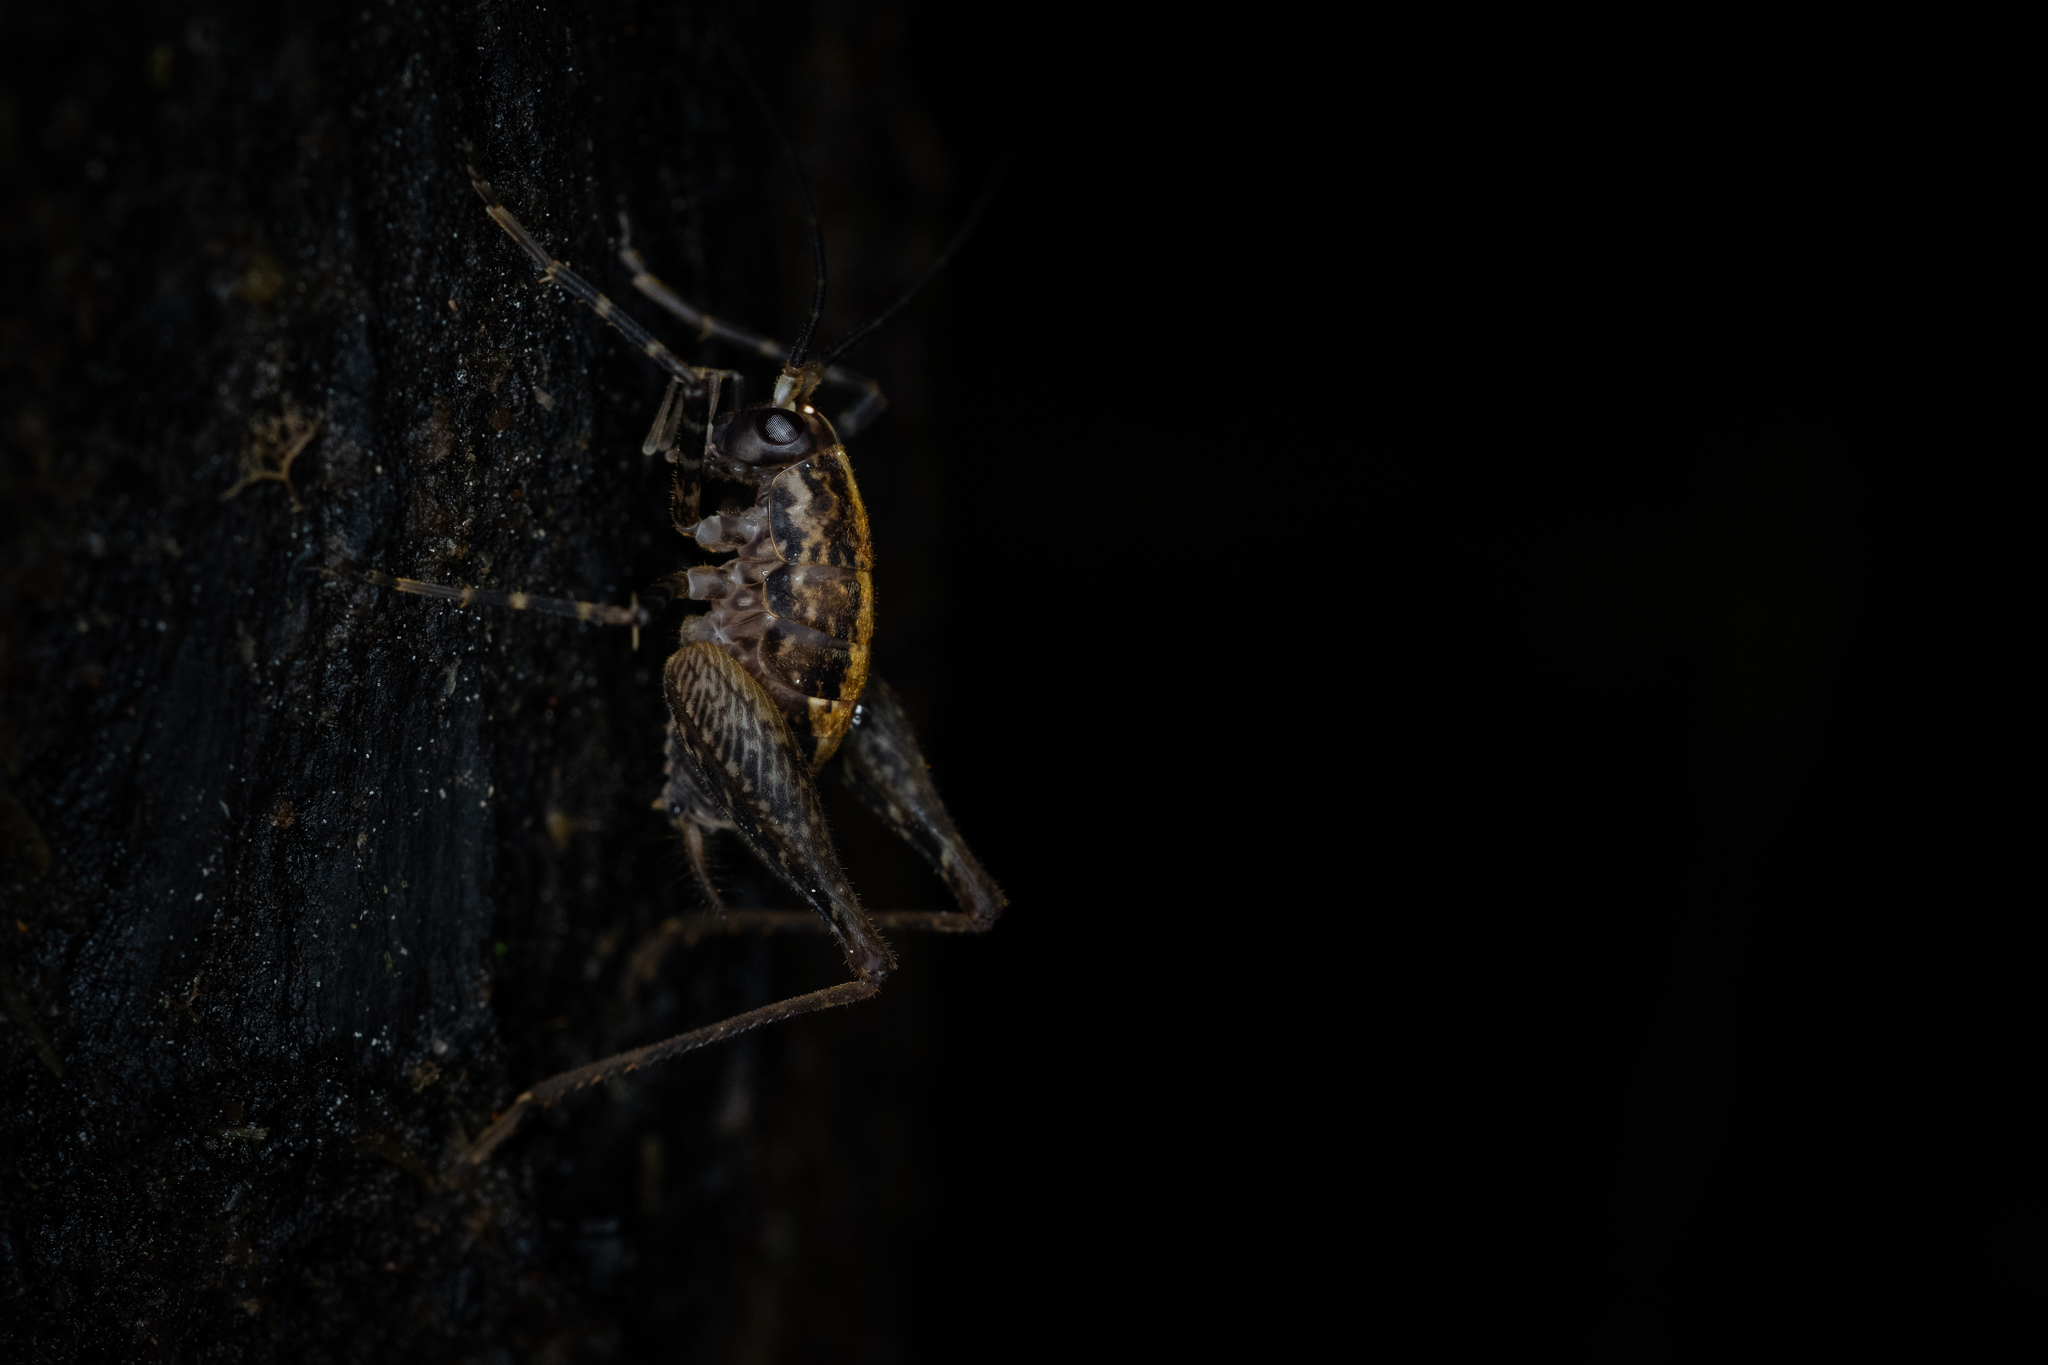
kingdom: Animalia
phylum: Arthropoda
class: Insecta
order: Orthoptera
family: Rhaphidophoridae
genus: Pleioplectron
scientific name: Pleioplectron hudsoni
